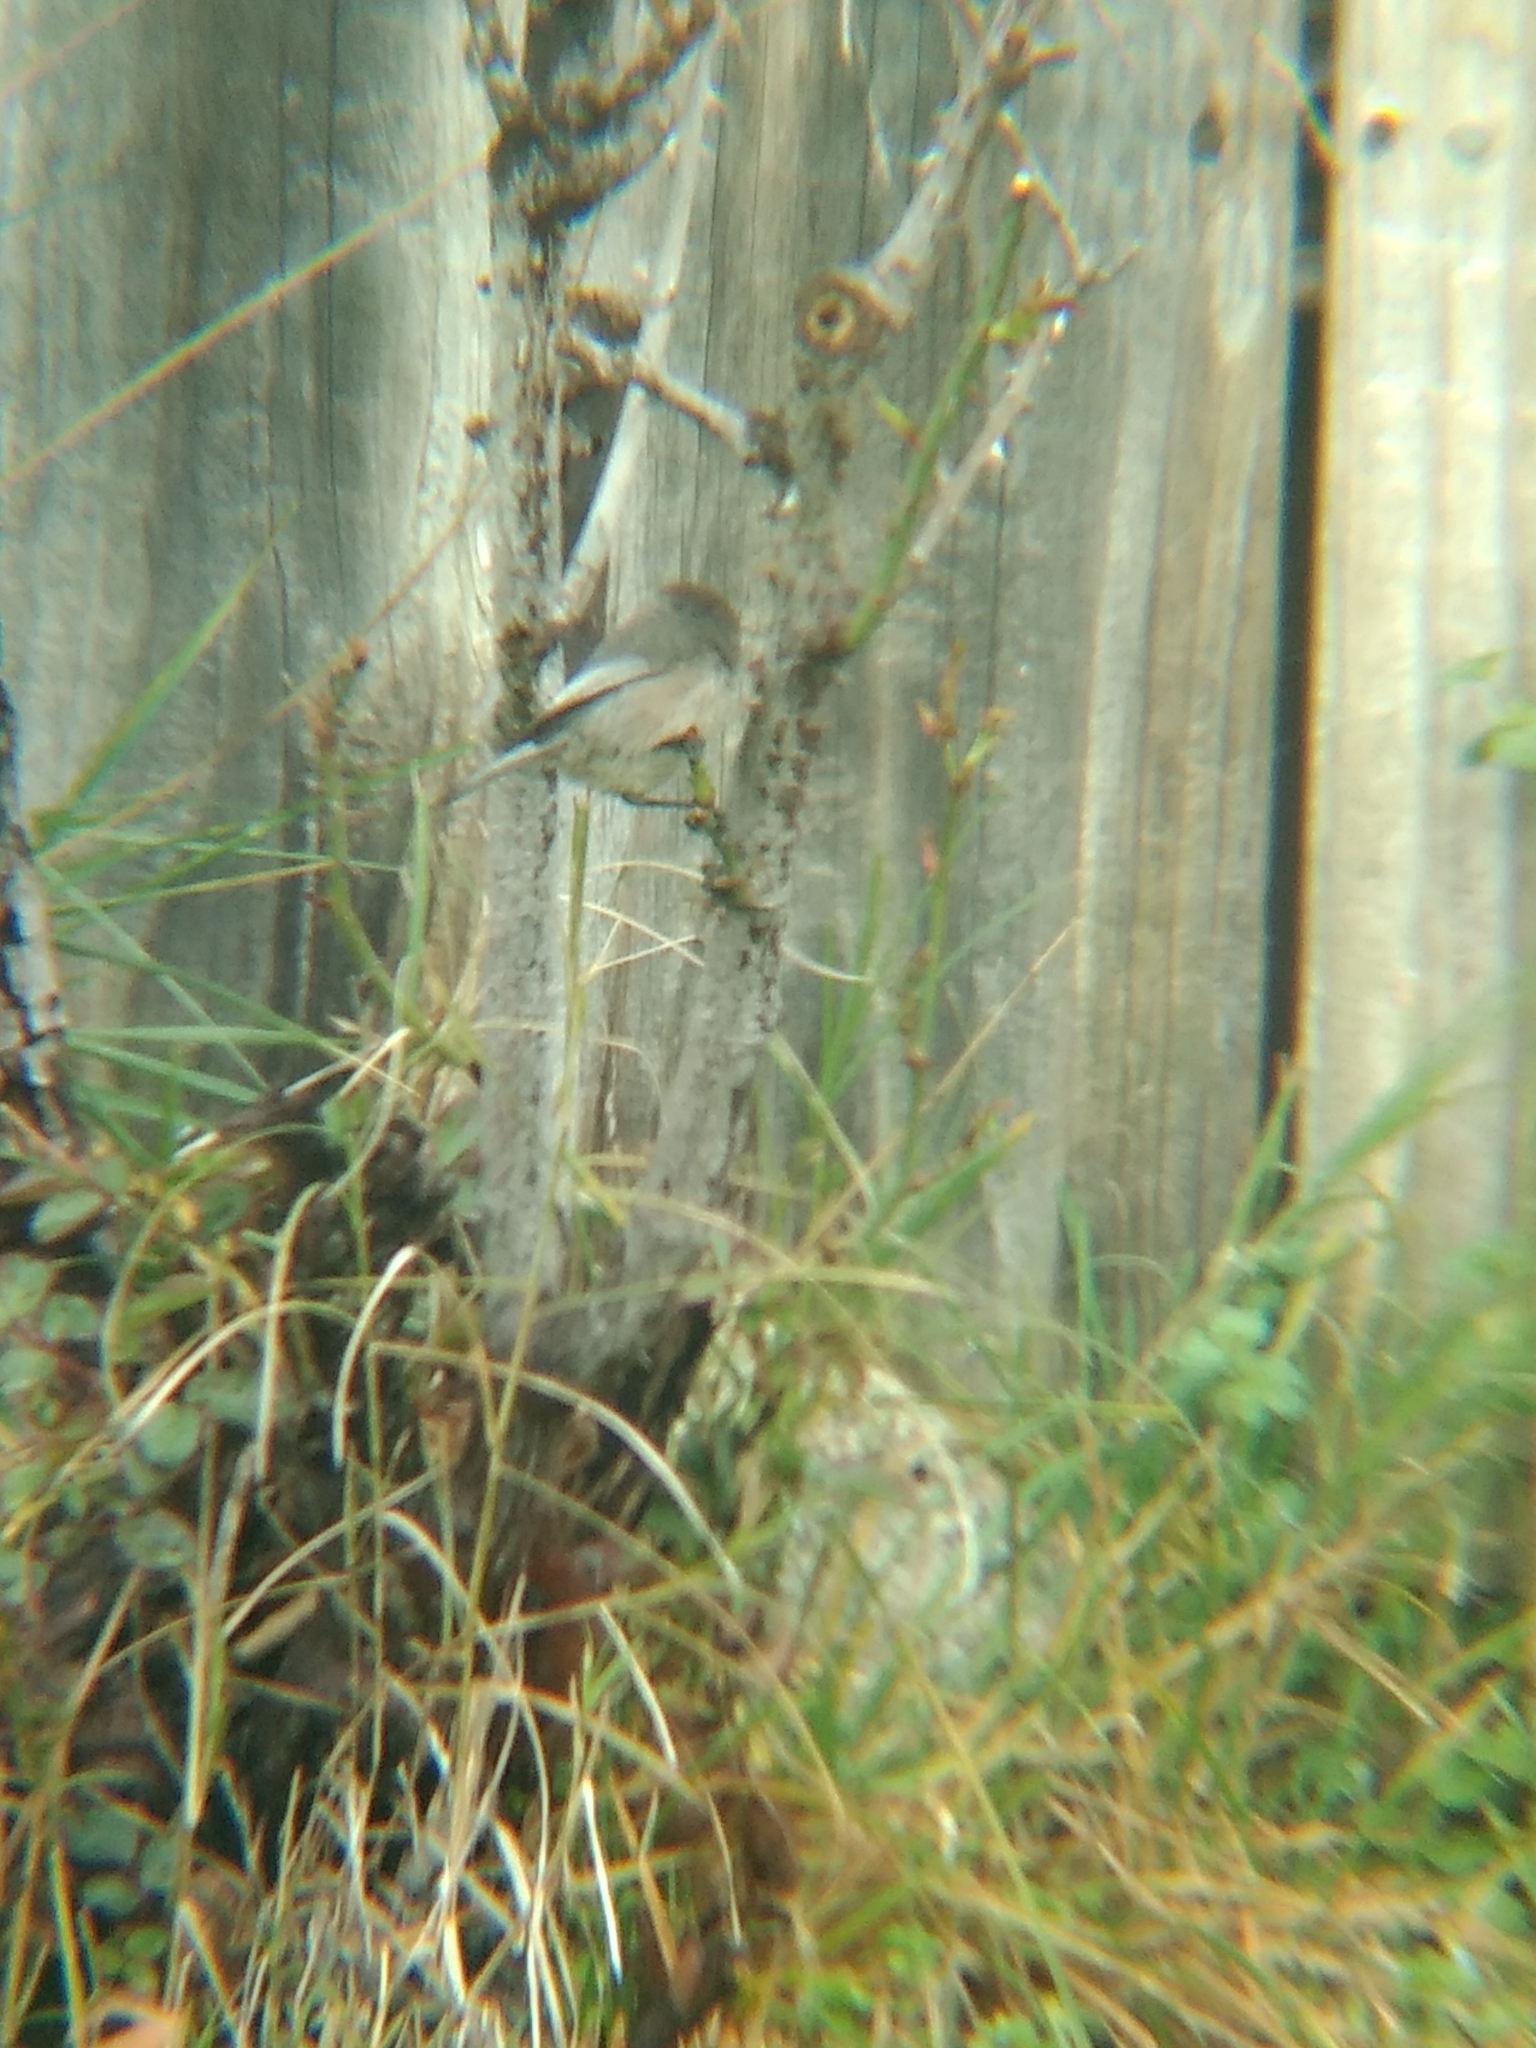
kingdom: Animalia
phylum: Chordata
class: Aves
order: Passeriformes
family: Aegithalidae
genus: Psaltriparus
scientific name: Psaltriparus minimus
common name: American bushtit
